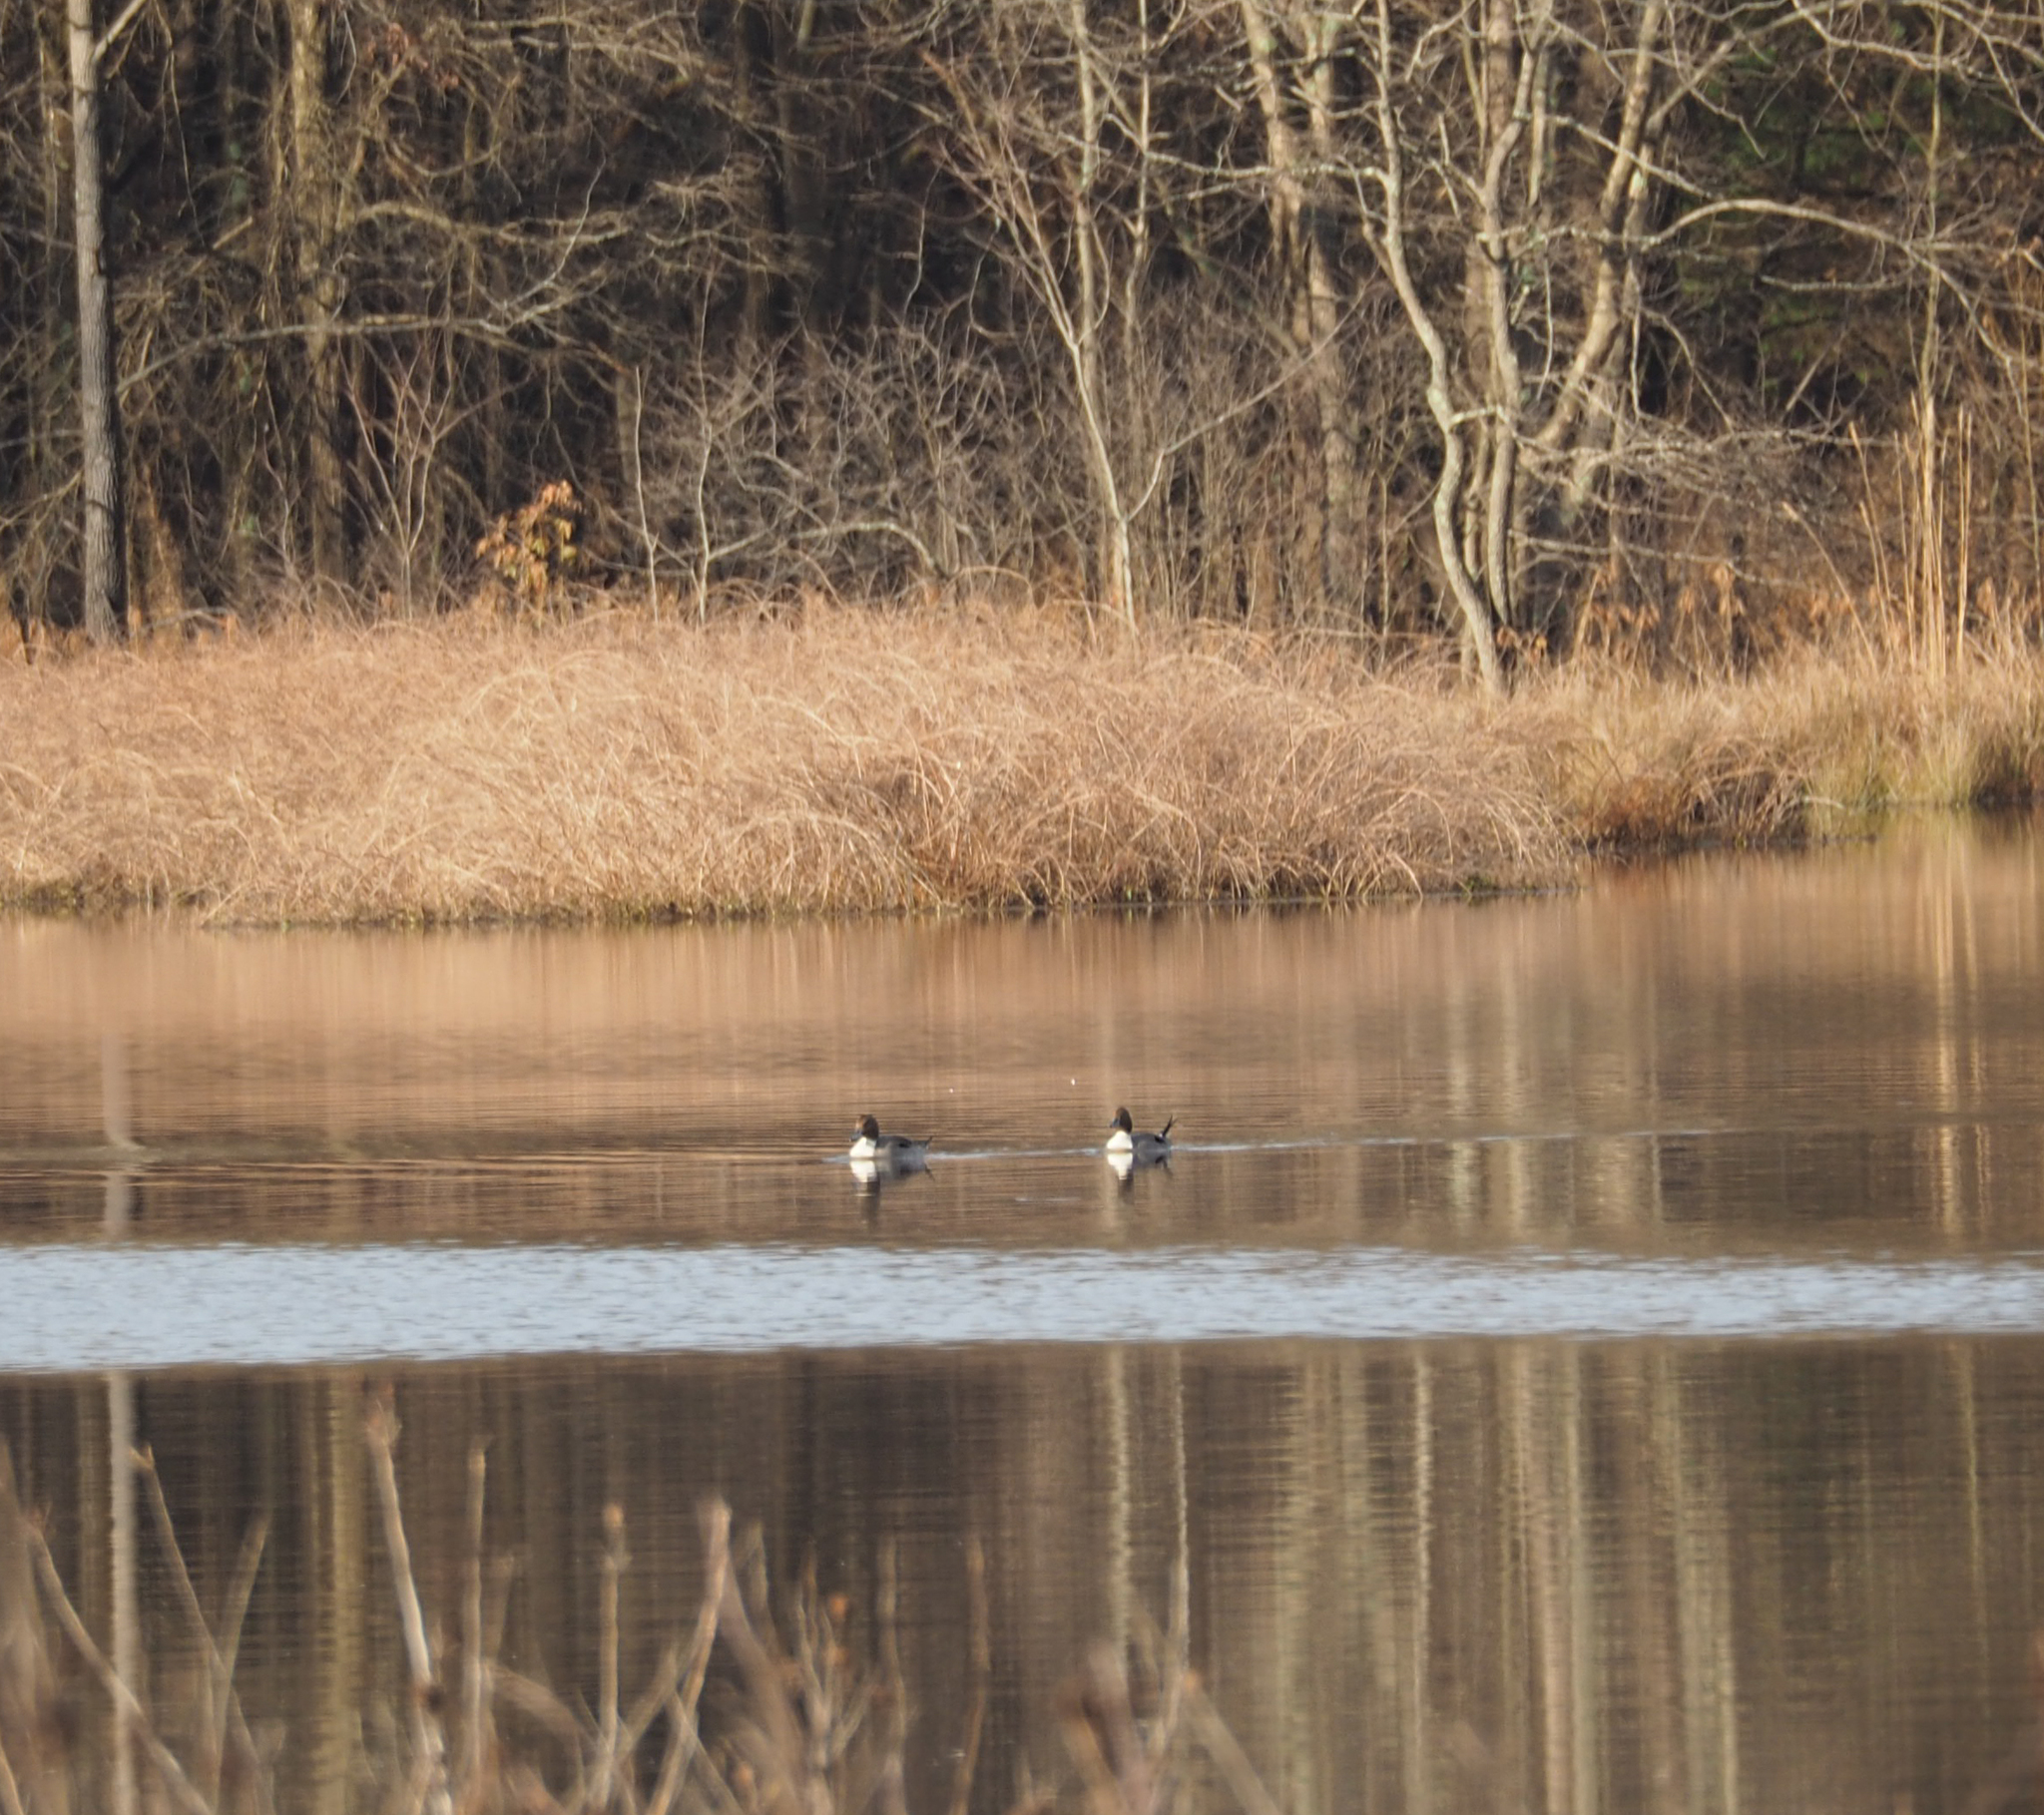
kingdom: Animalia
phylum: Chordata
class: Aves
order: Anseriformes
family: Anatidae
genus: Anas
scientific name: Anas acuta
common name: Northern pintail
